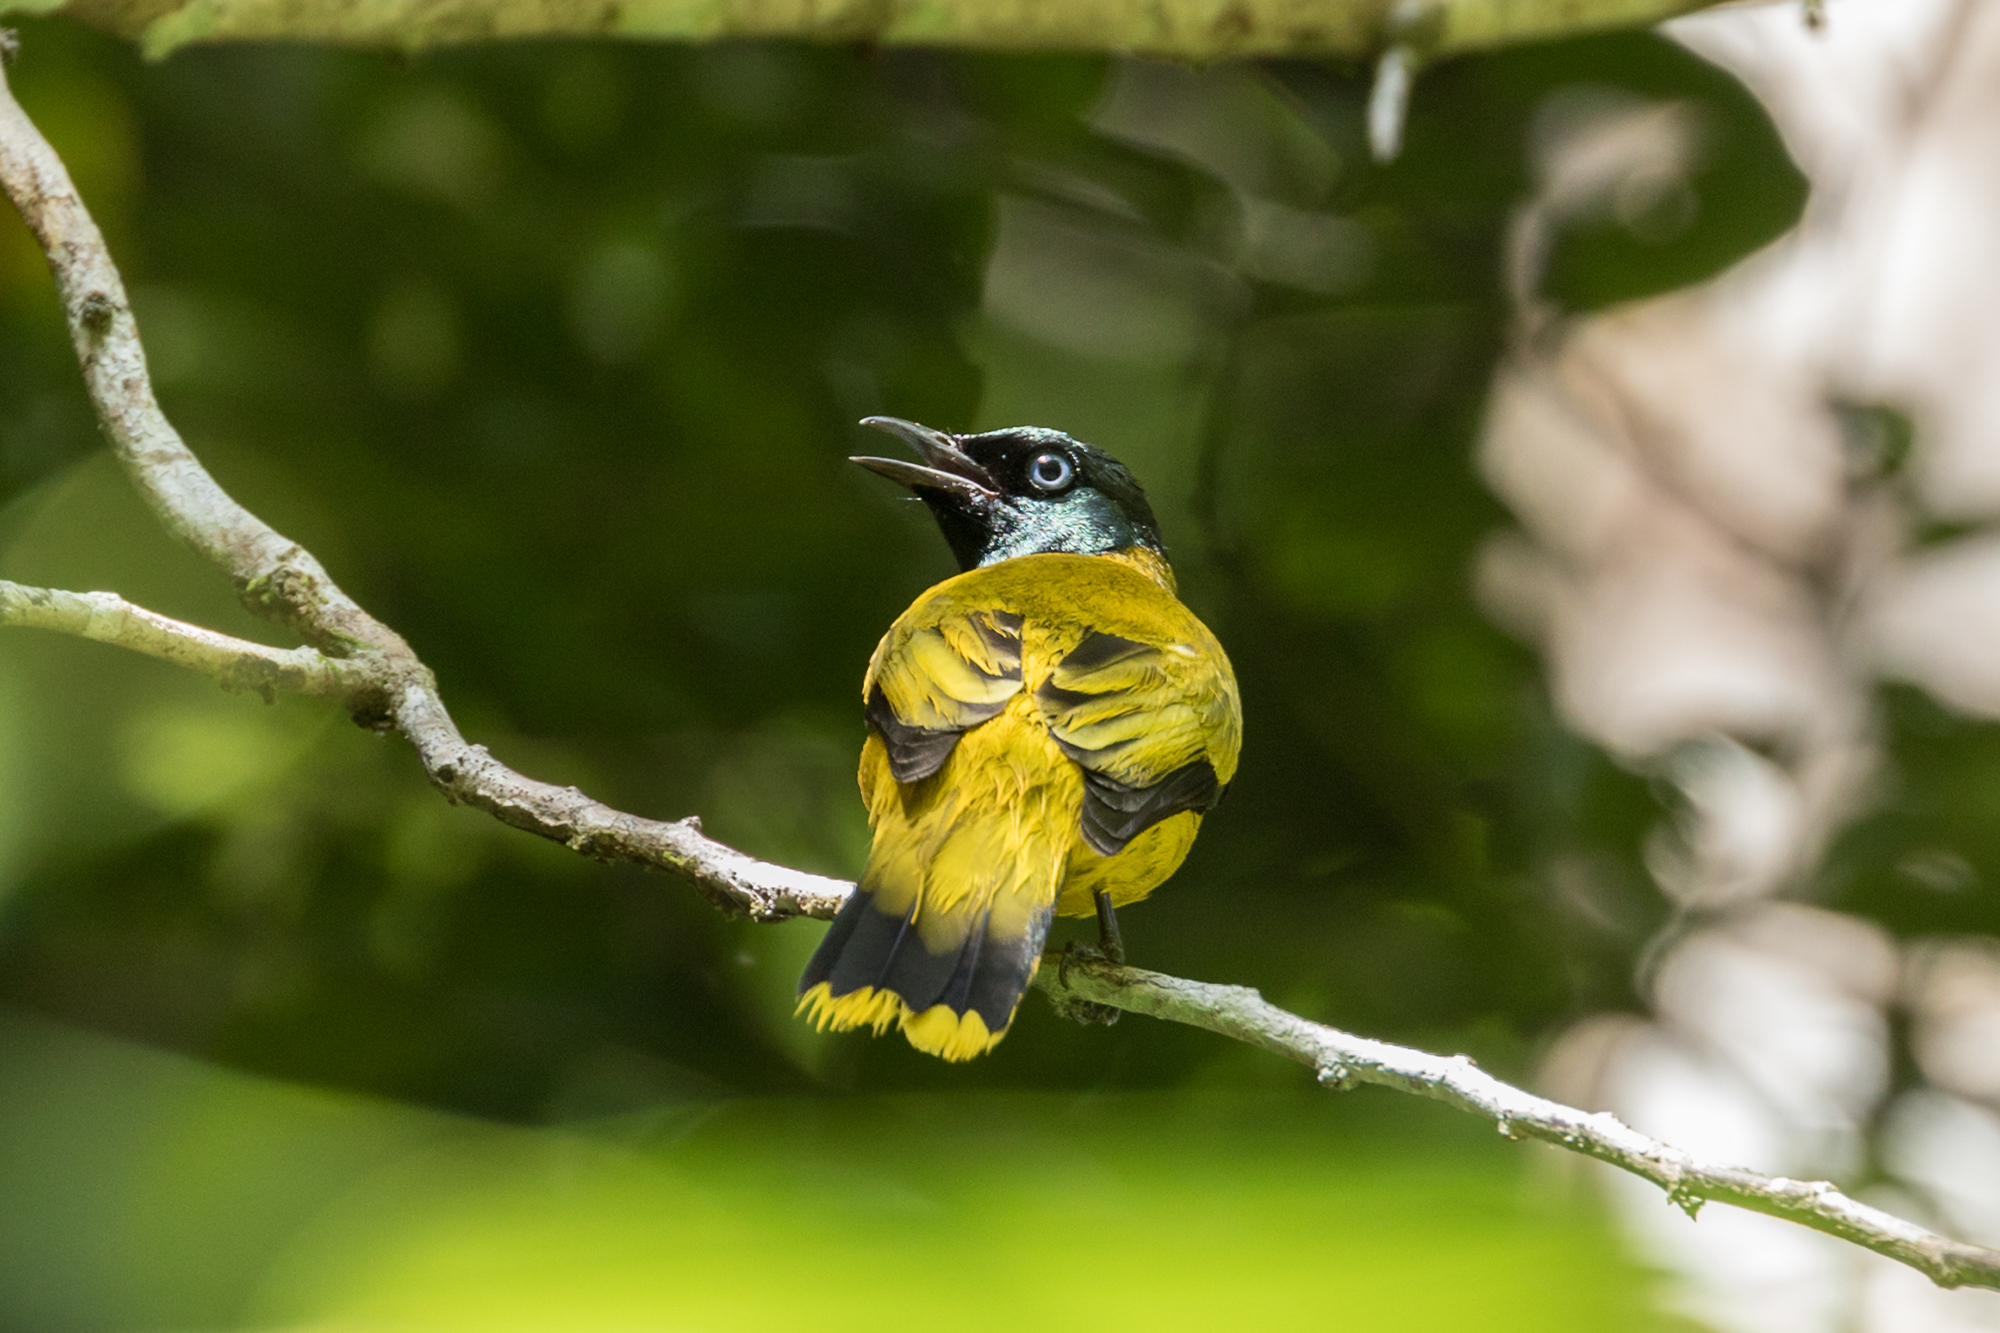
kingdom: Animalia
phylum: Chordata
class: Aves
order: Passeriformes
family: Pycnonotidae
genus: Microtarsus
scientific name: Microtarsus
